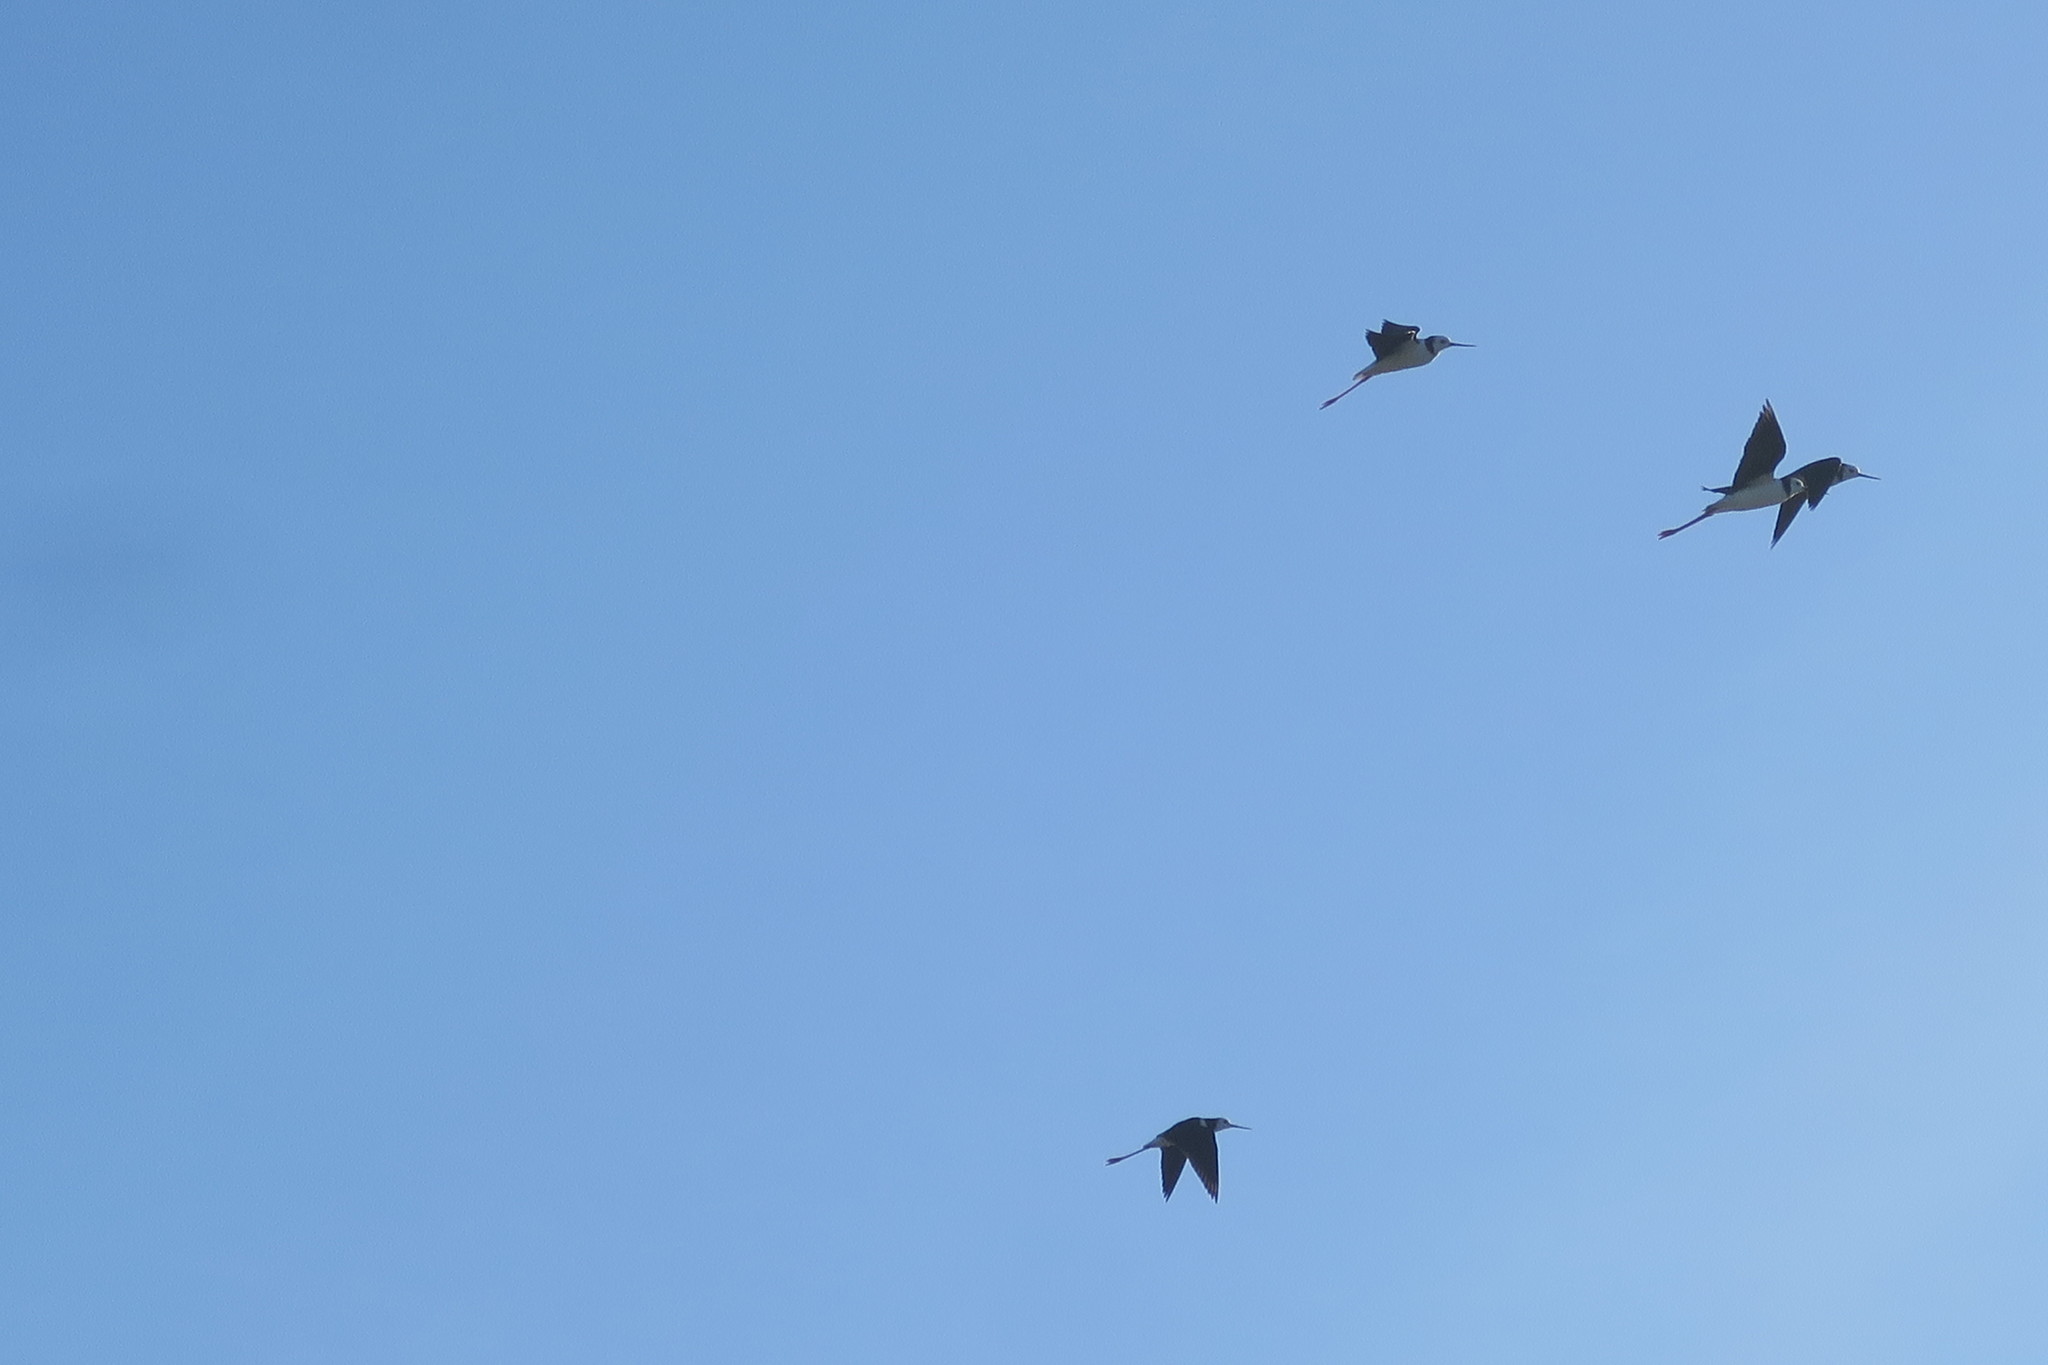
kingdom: Animalia
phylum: Chordata
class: Aves
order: Charadriiformes
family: Recurvirostridae
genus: Himantopus
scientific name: Himantopus leucocephalus
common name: White-headed stilt
